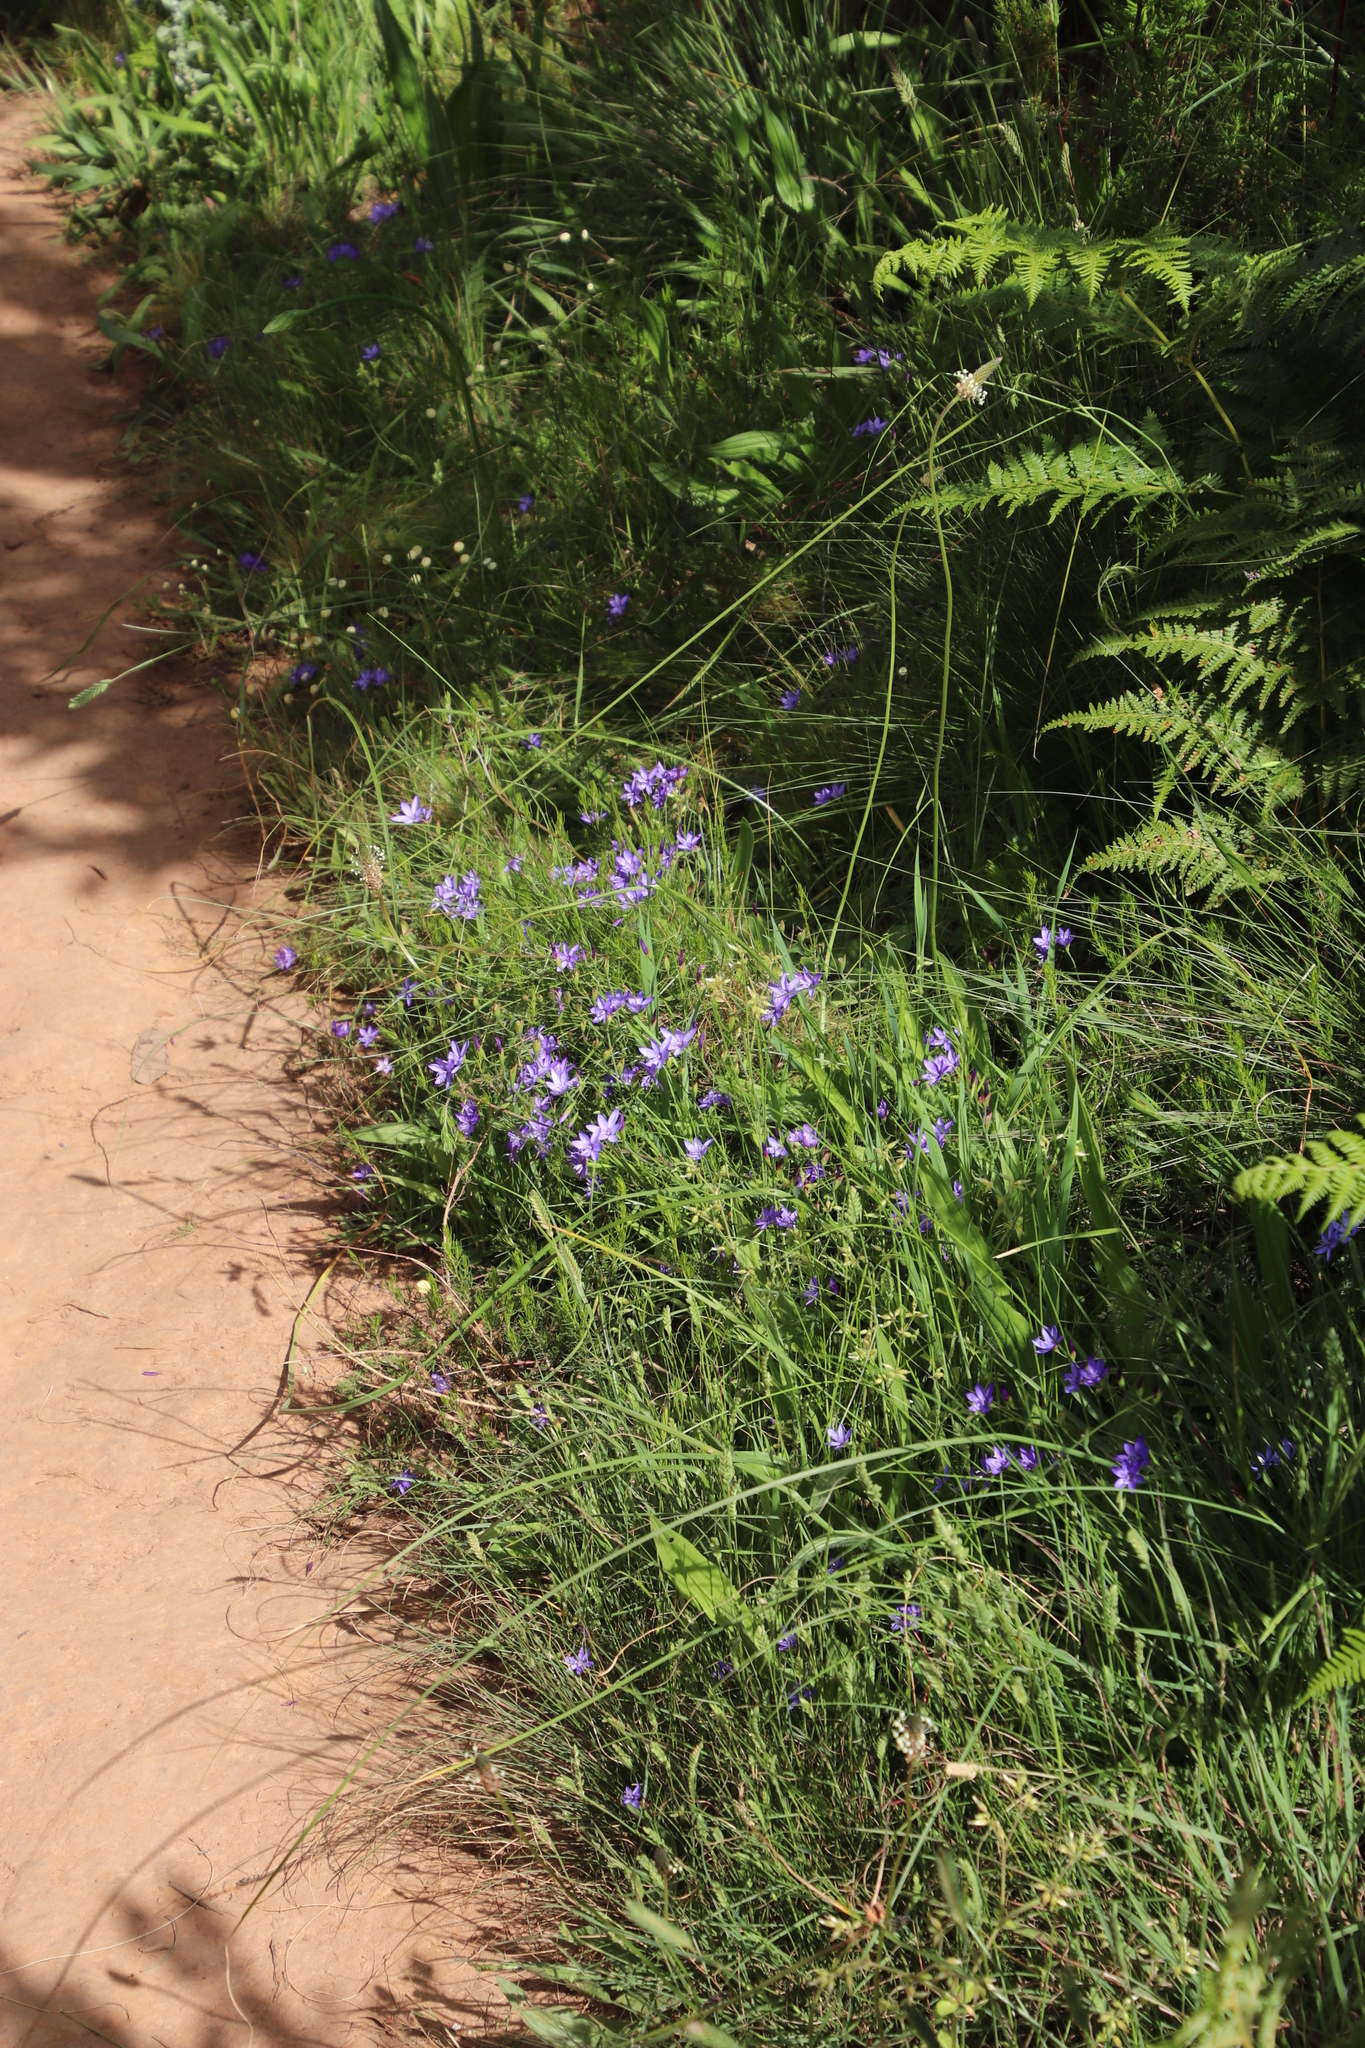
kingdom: Plantae
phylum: Tracheophyta
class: Liliopsida
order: Asparagales
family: Iridaceae
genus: Geissorhiza
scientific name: Geissorhiza aspera
